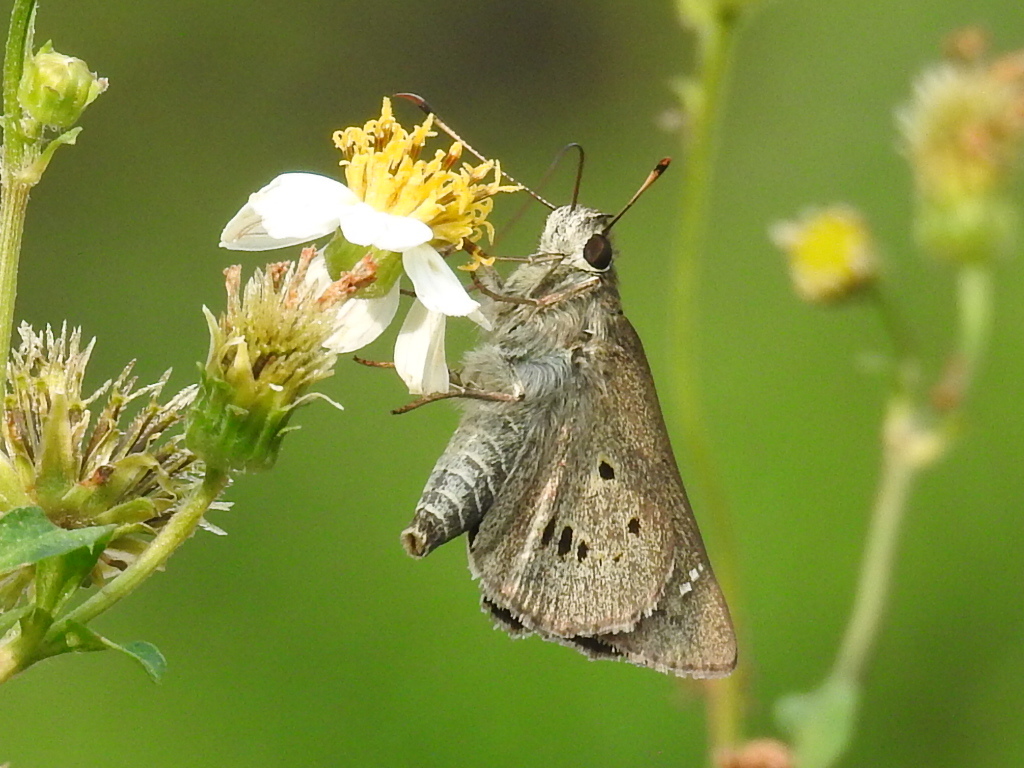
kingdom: Animalia
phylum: Arthropoda
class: Insecta
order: Lepidoptera
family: Hesperiidae
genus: Suastus
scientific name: Suastus gremius
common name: Indian palm bob
